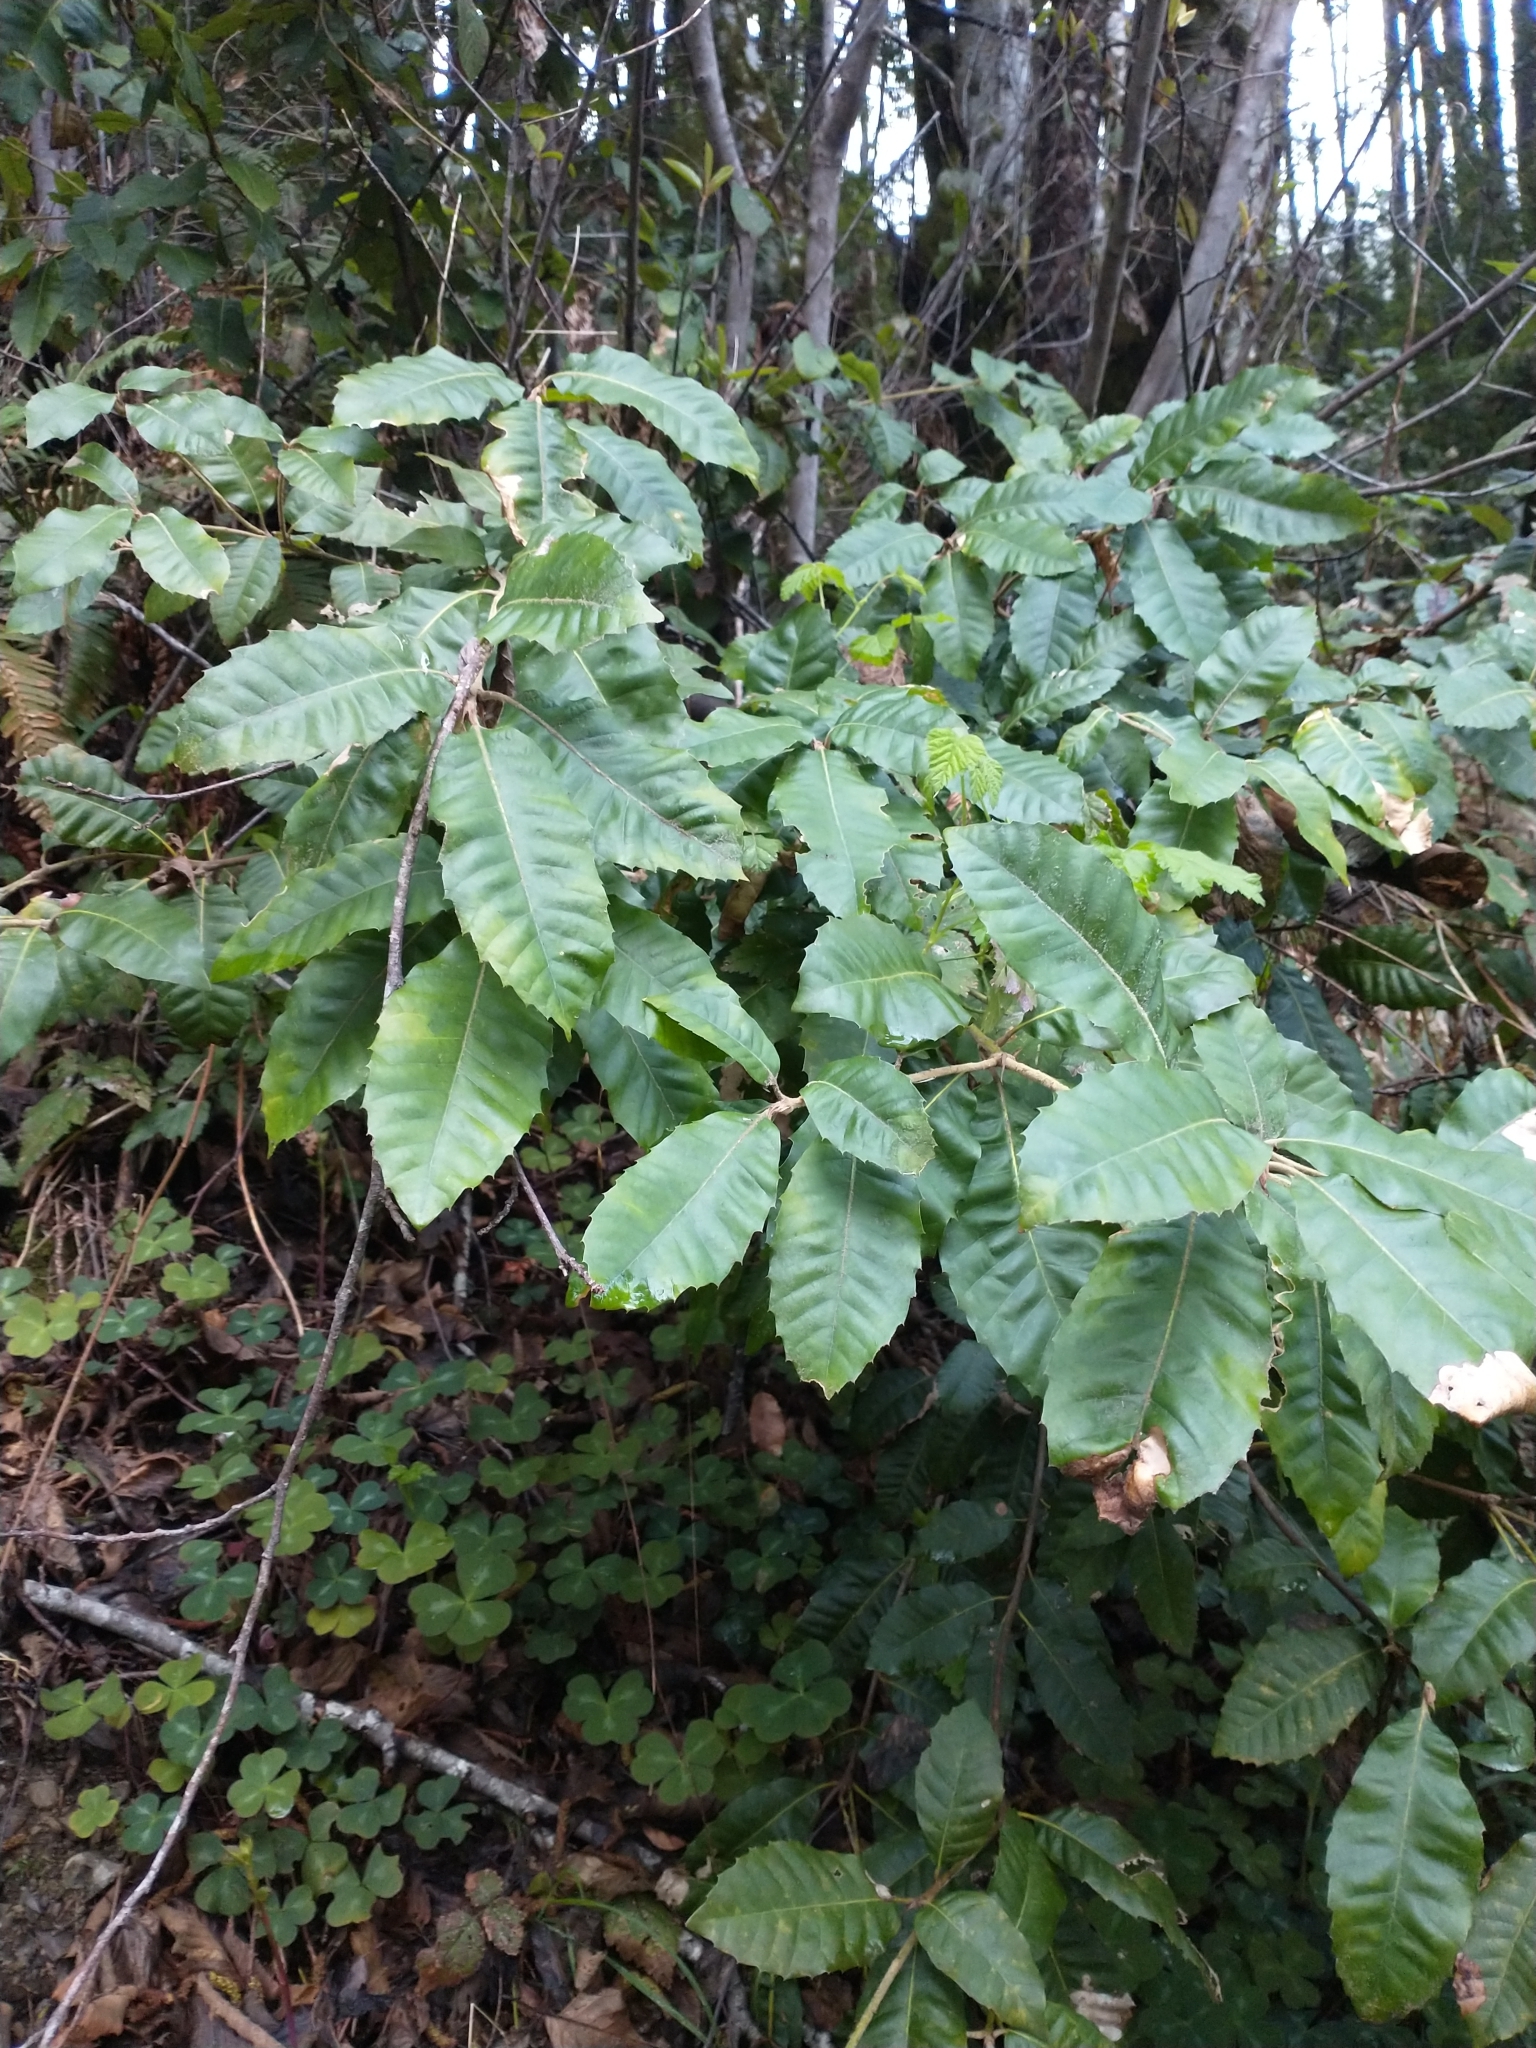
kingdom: Plantae
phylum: Tracheophyta
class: Magnoliopsida
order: Fagales
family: Fagaceae
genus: Notholithocarpus
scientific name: Notholithocarpus densiflorus
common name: Tan bark oak
